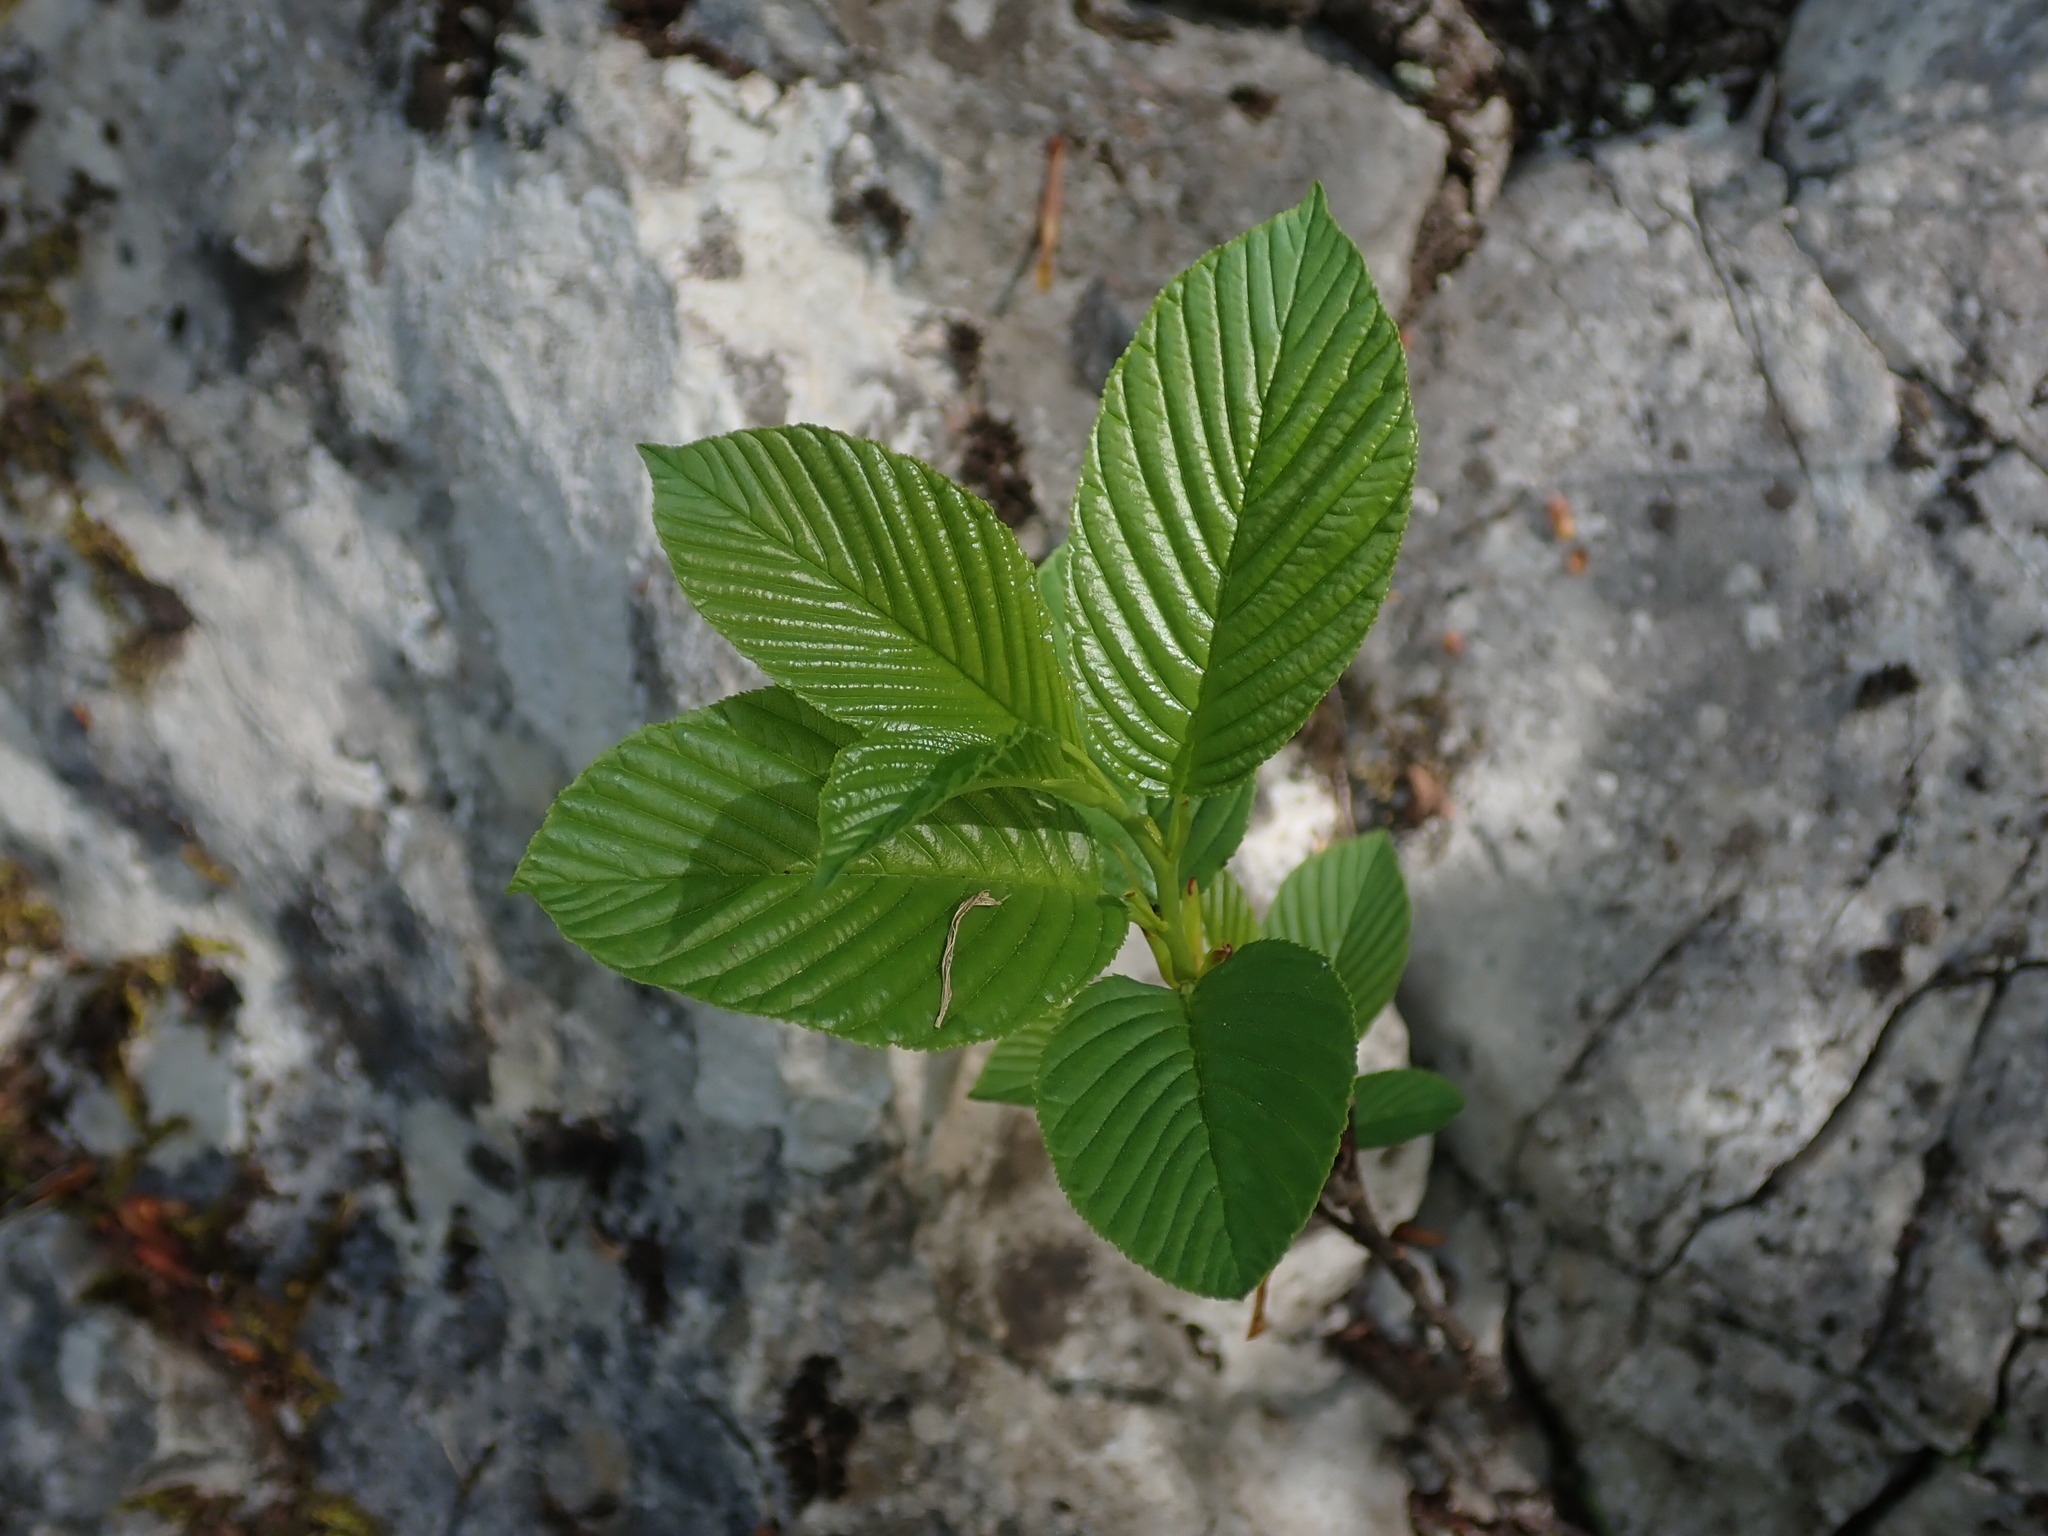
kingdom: Plantae
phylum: Tracheophyta
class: Magnoliopsida
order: Rosales
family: Rhamnaceae
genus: Atadinus
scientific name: Atadinus fallax
